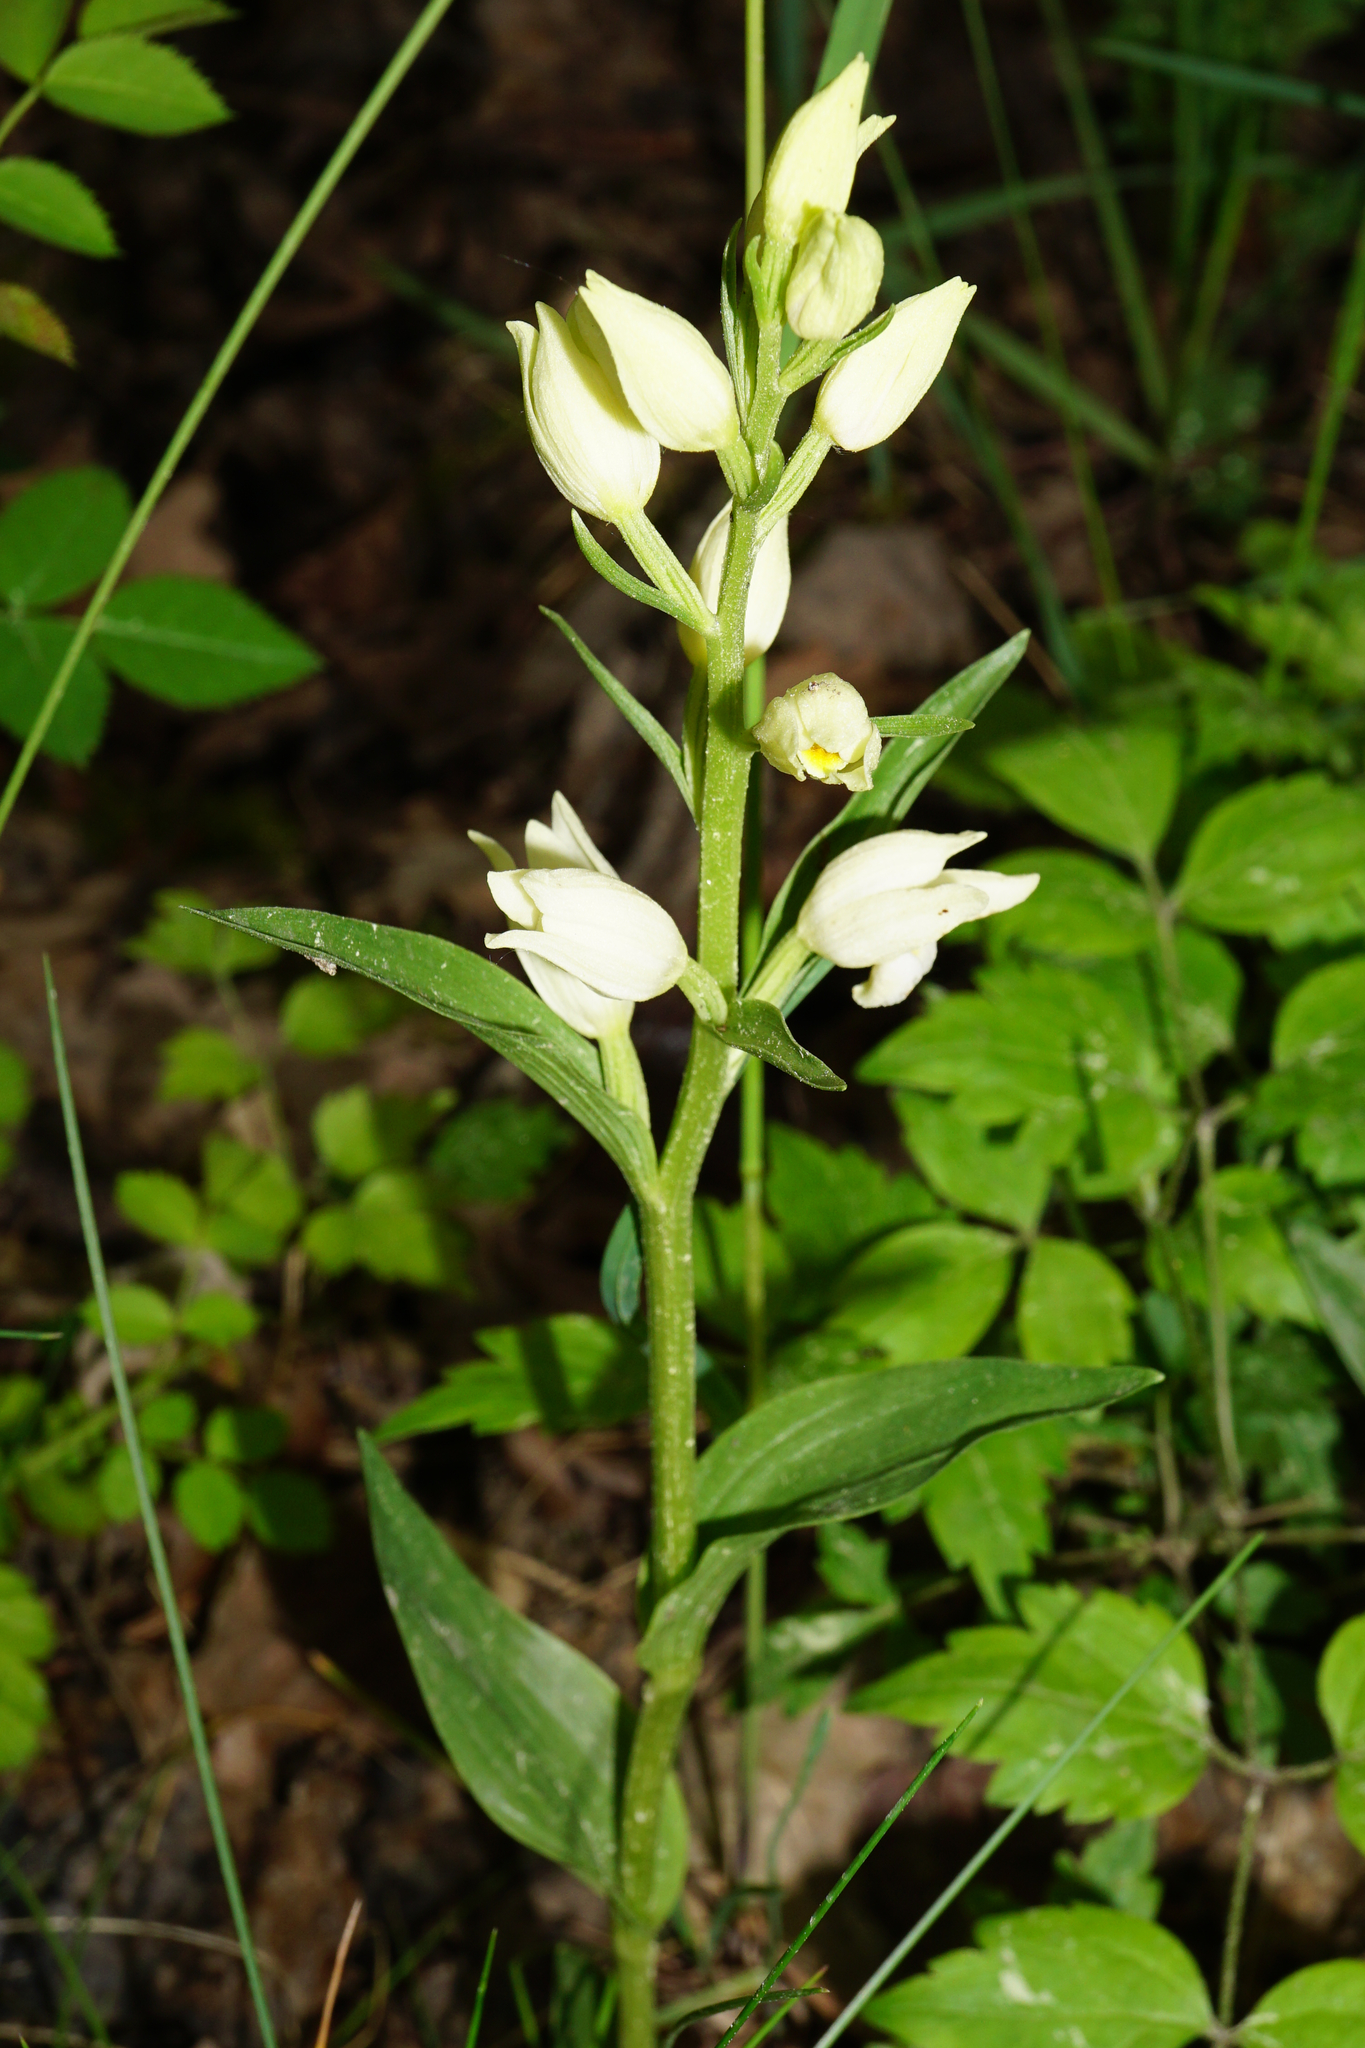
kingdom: Plantae
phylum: Tracheophyta
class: Liliopsida
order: Asparagales
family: Orchidaceae
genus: Cephalanthera
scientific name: Cephalanthera damasonium
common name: White helleborine
